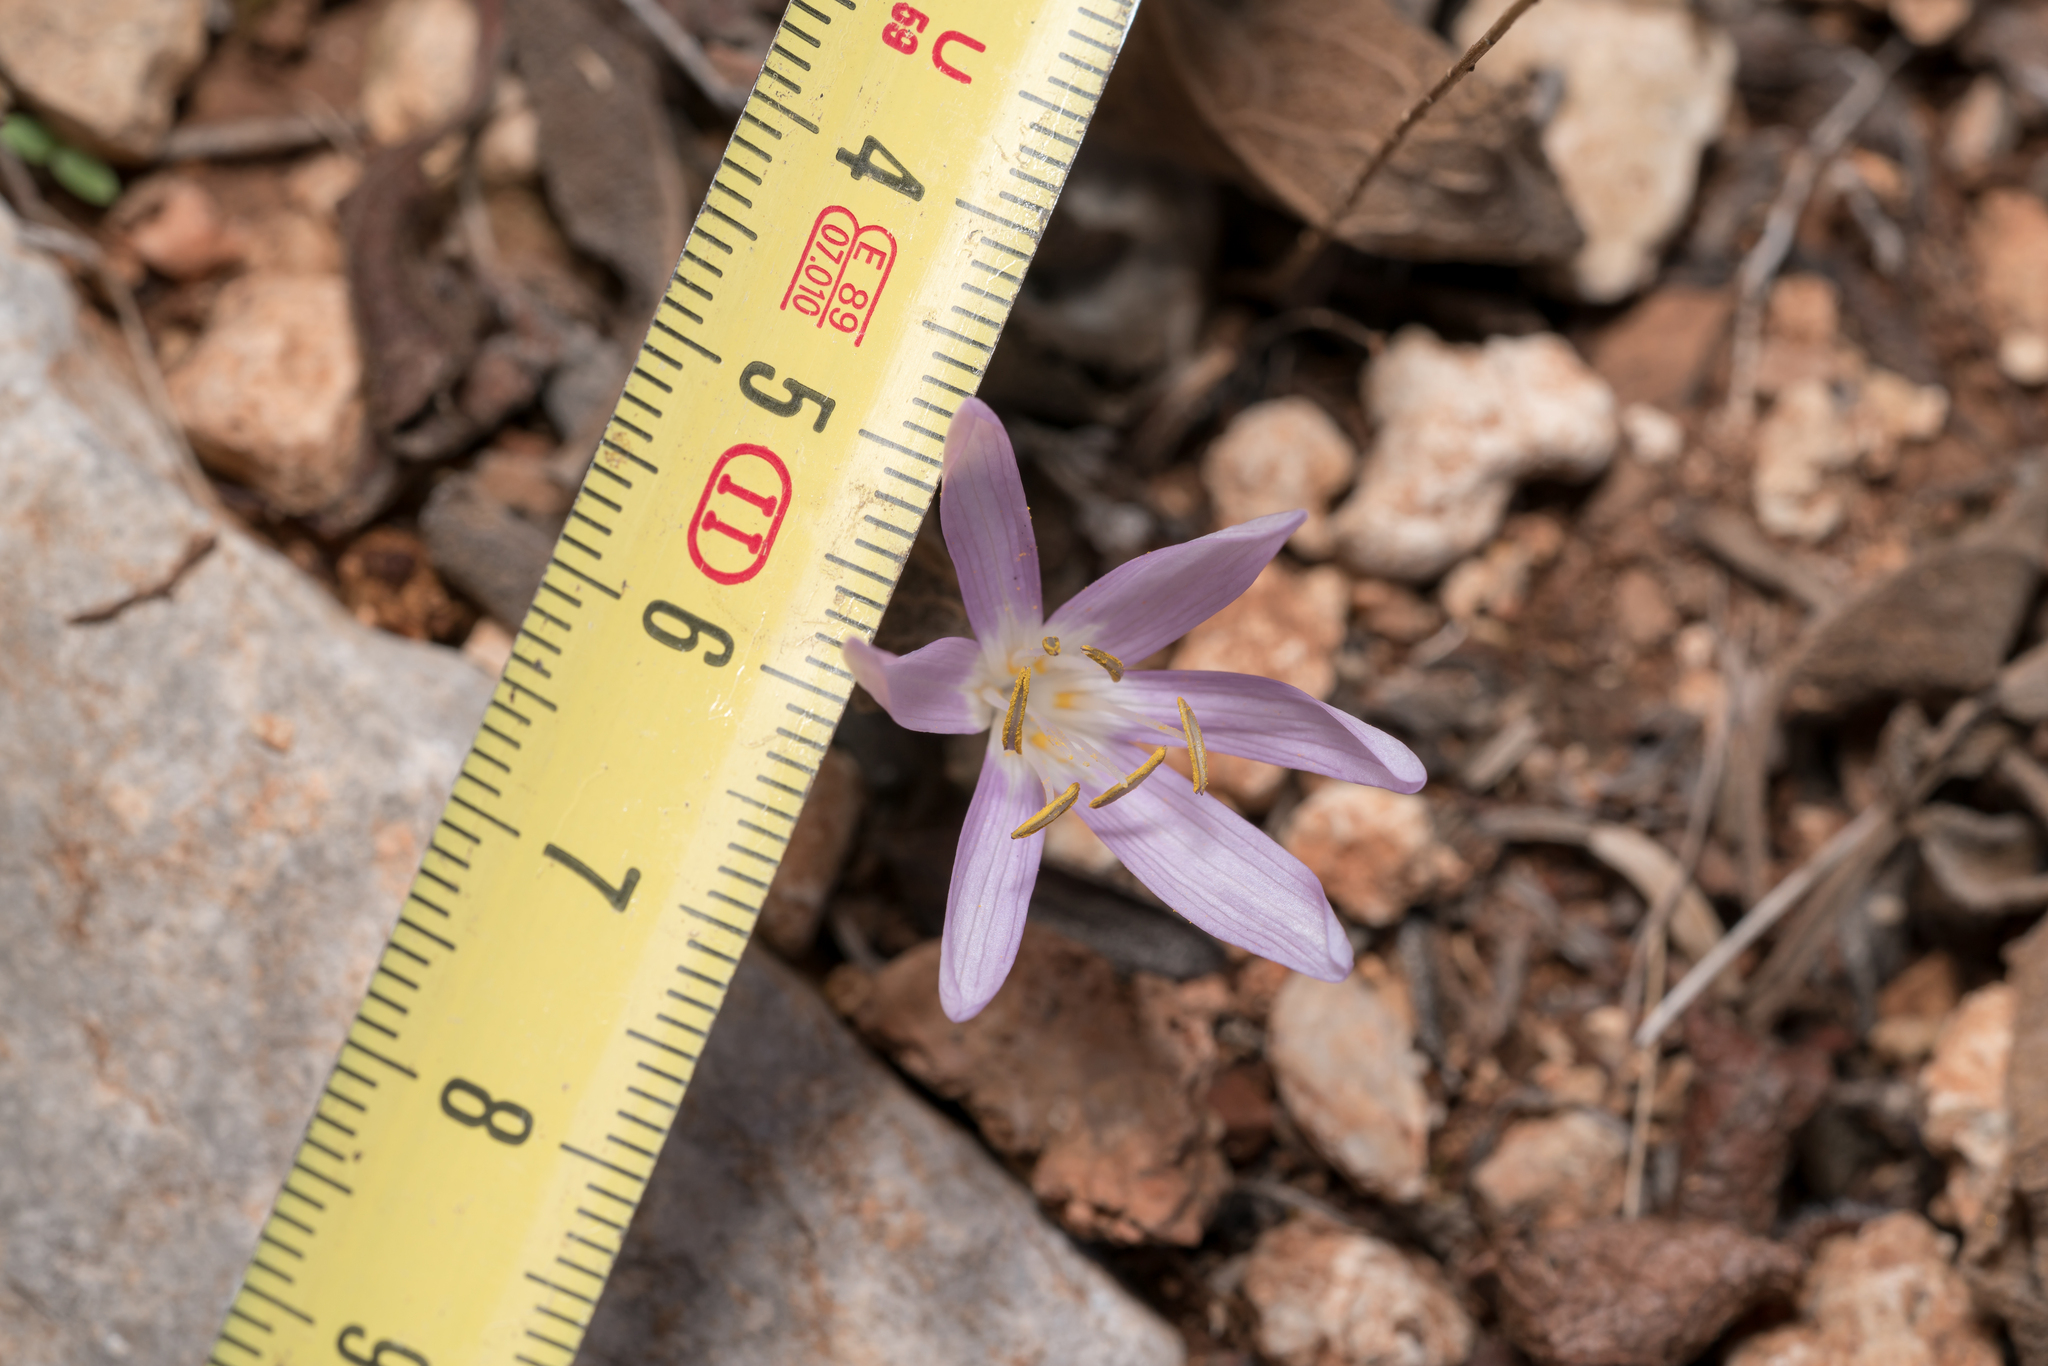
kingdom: Plantae
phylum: Tracheophyta
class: Liliopsida
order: Liliales
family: Colchicaceae
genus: Colchicum
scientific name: Colchicum pusillum
